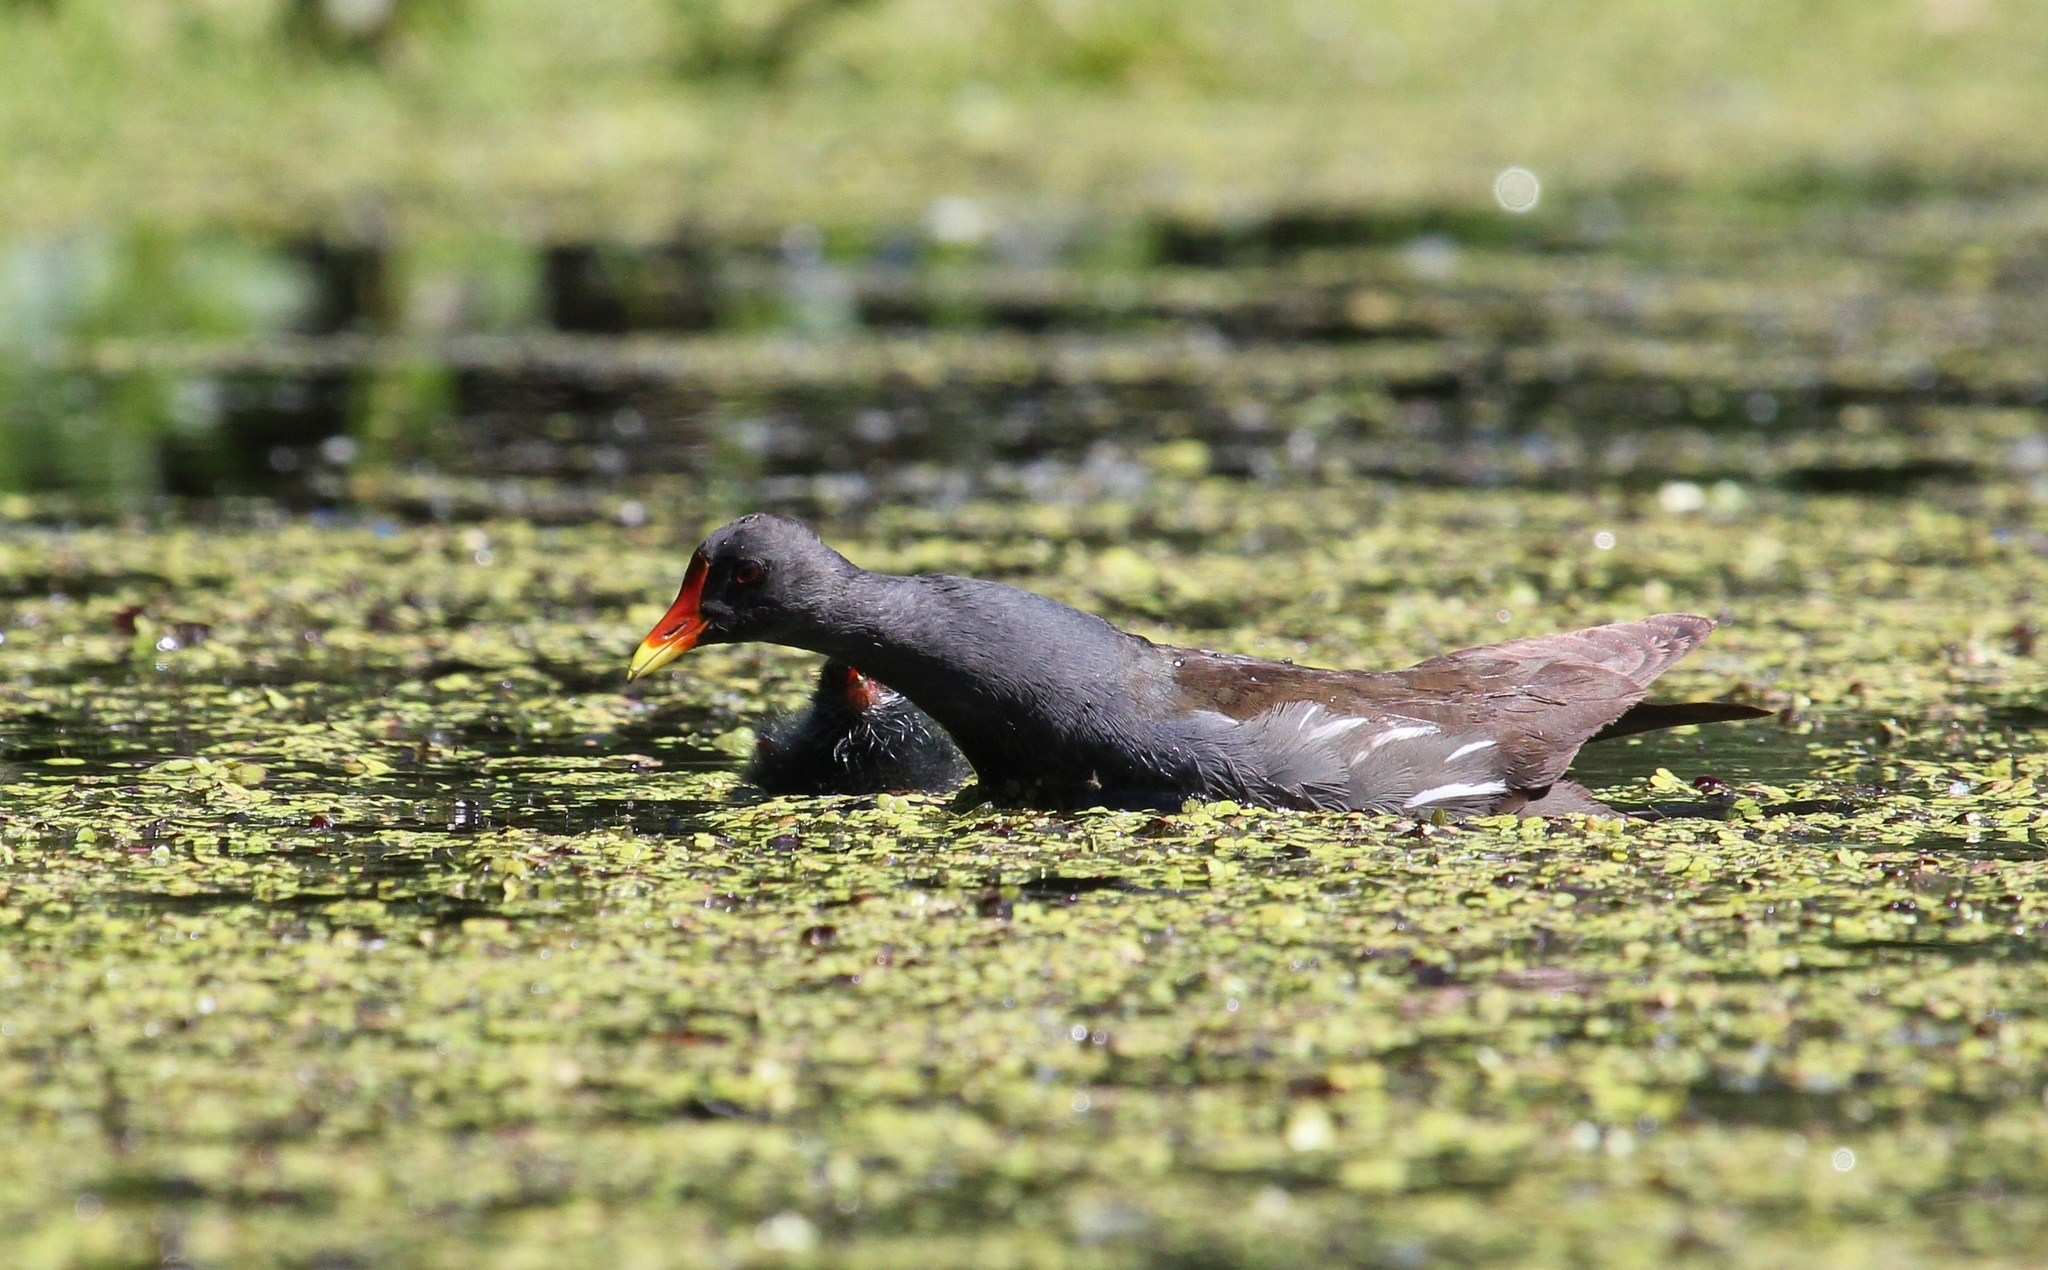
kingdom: Animalia
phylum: Chordata
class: Aves
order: Gruiformes
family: Rallidae
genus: Gallinula
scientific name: Gallinula chloropus
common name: Common moorhen
